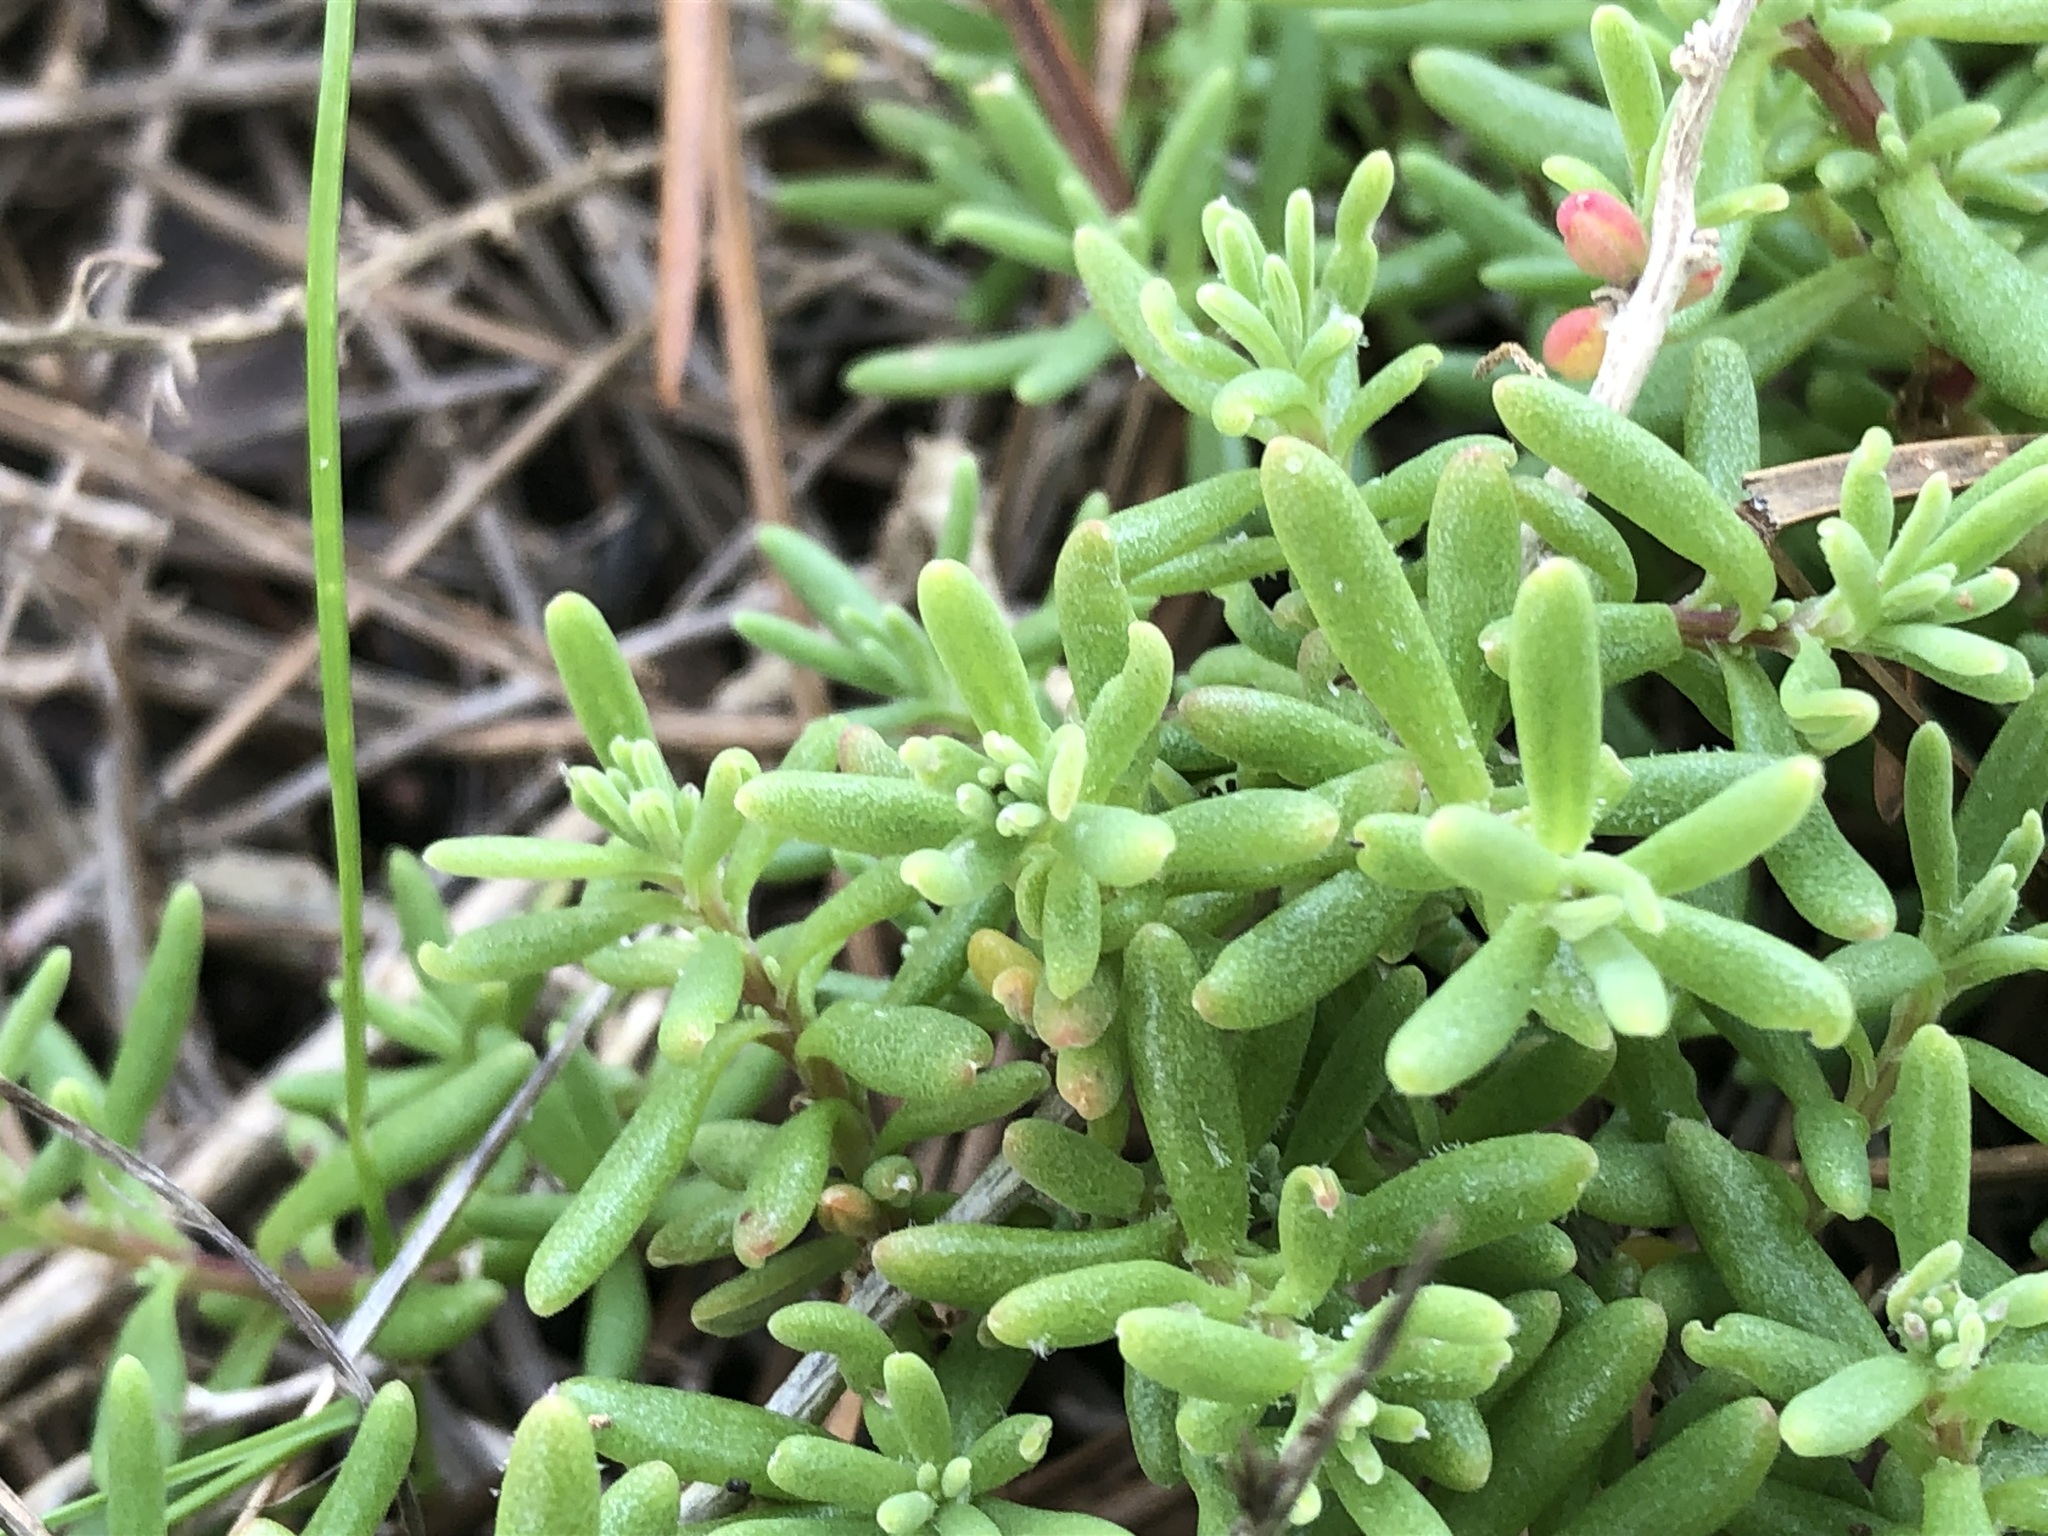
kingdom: Plantae
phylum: Tracheophyta
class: Magnoliopsida
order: Caryophyllales
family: Aizoaceae
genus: Tetragonia
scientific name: Tetragonia fruticosa
